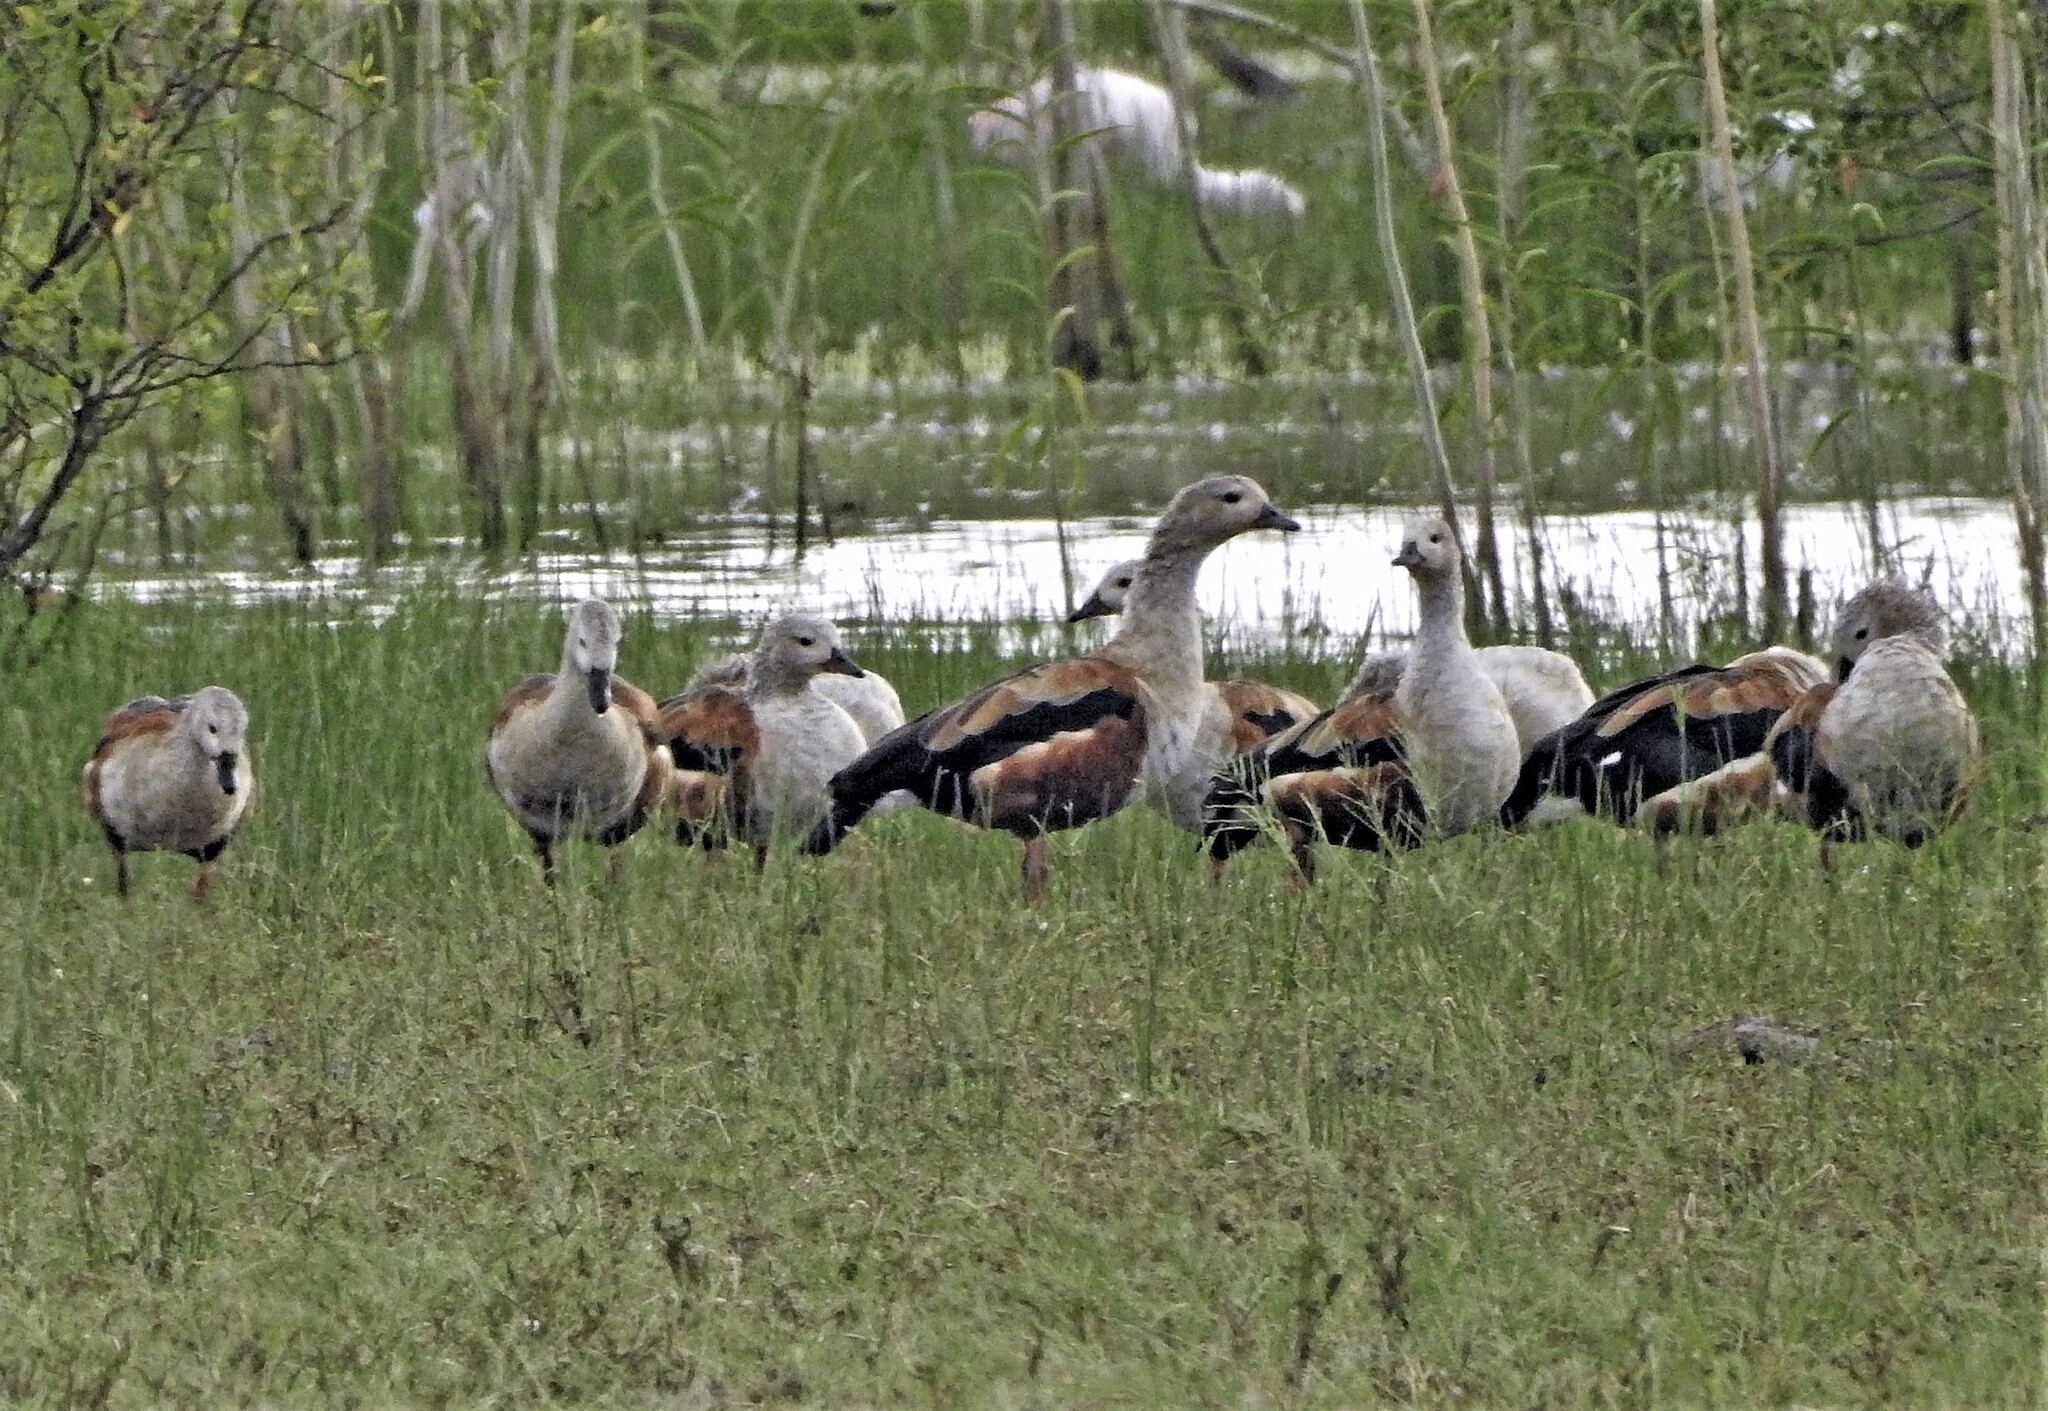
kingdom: Animalia
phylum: Chordata
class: Aves
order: Anseriformes
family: Anatidae
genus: Oressochen
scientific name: Oressochen jubatus
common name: Orinoco goose
